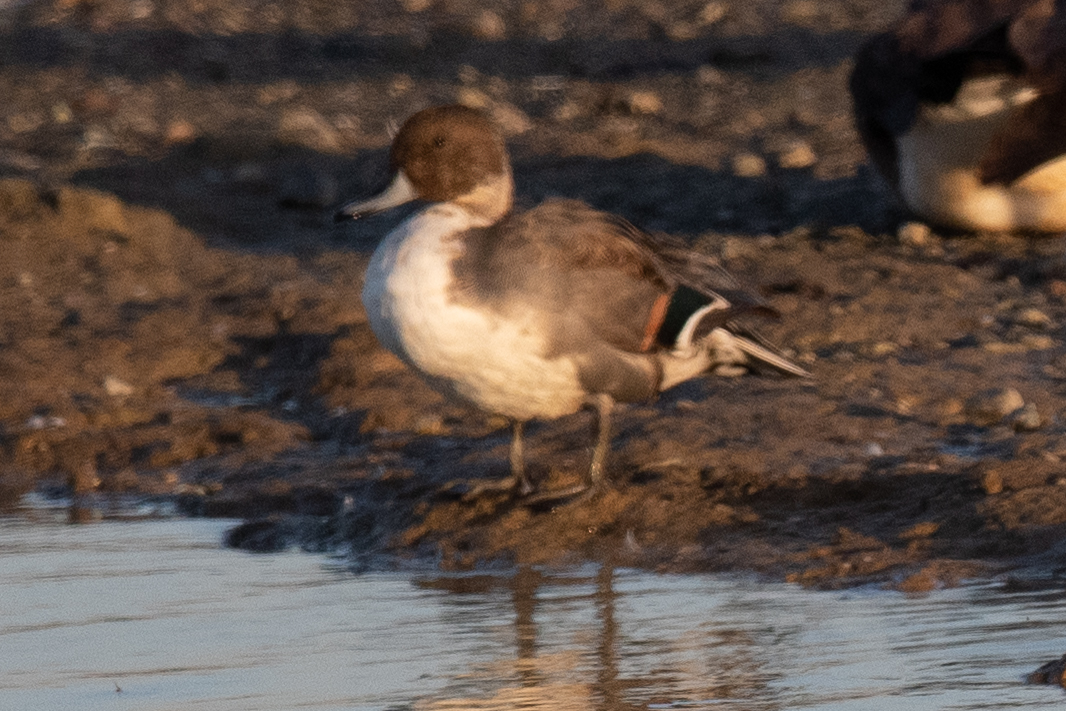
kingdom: Animalia
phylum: Chordata
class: Aves
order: Anseriformes
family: Anatidae
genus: Anas
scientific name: Anas acuta
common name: Northern pintail
